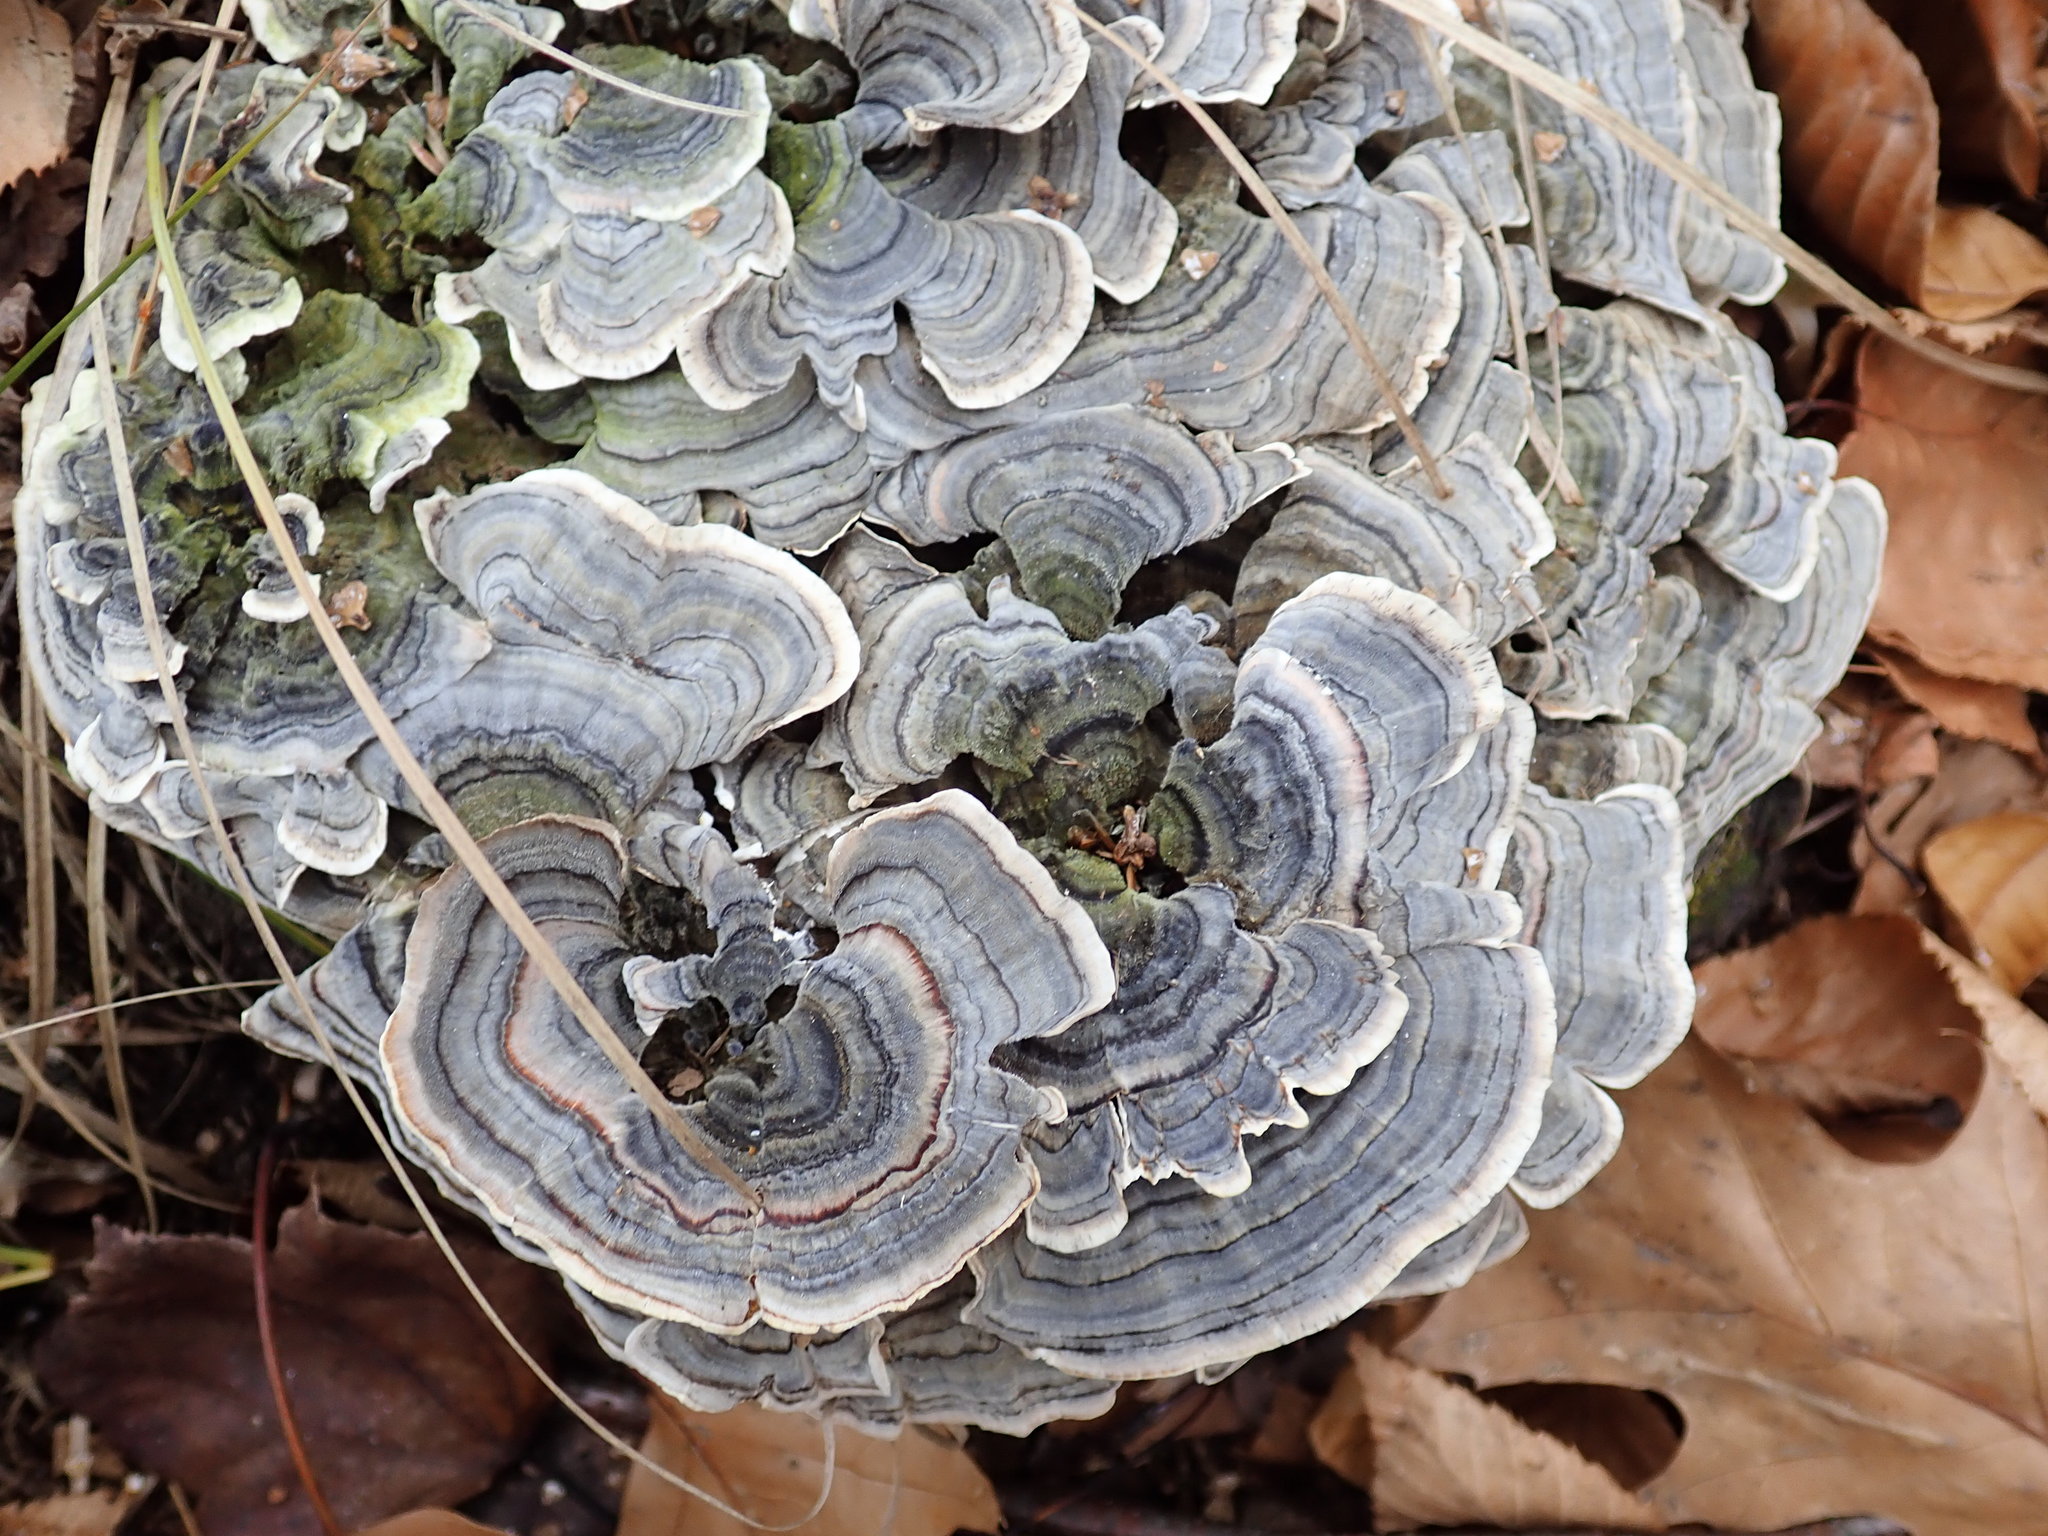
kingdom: Fungi
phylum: Basidiomycota
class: Agaricomycetes
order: Polyporales
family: Polyporaceae
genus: Trametes
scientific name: Trametes versicolor
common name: Turkeytail
